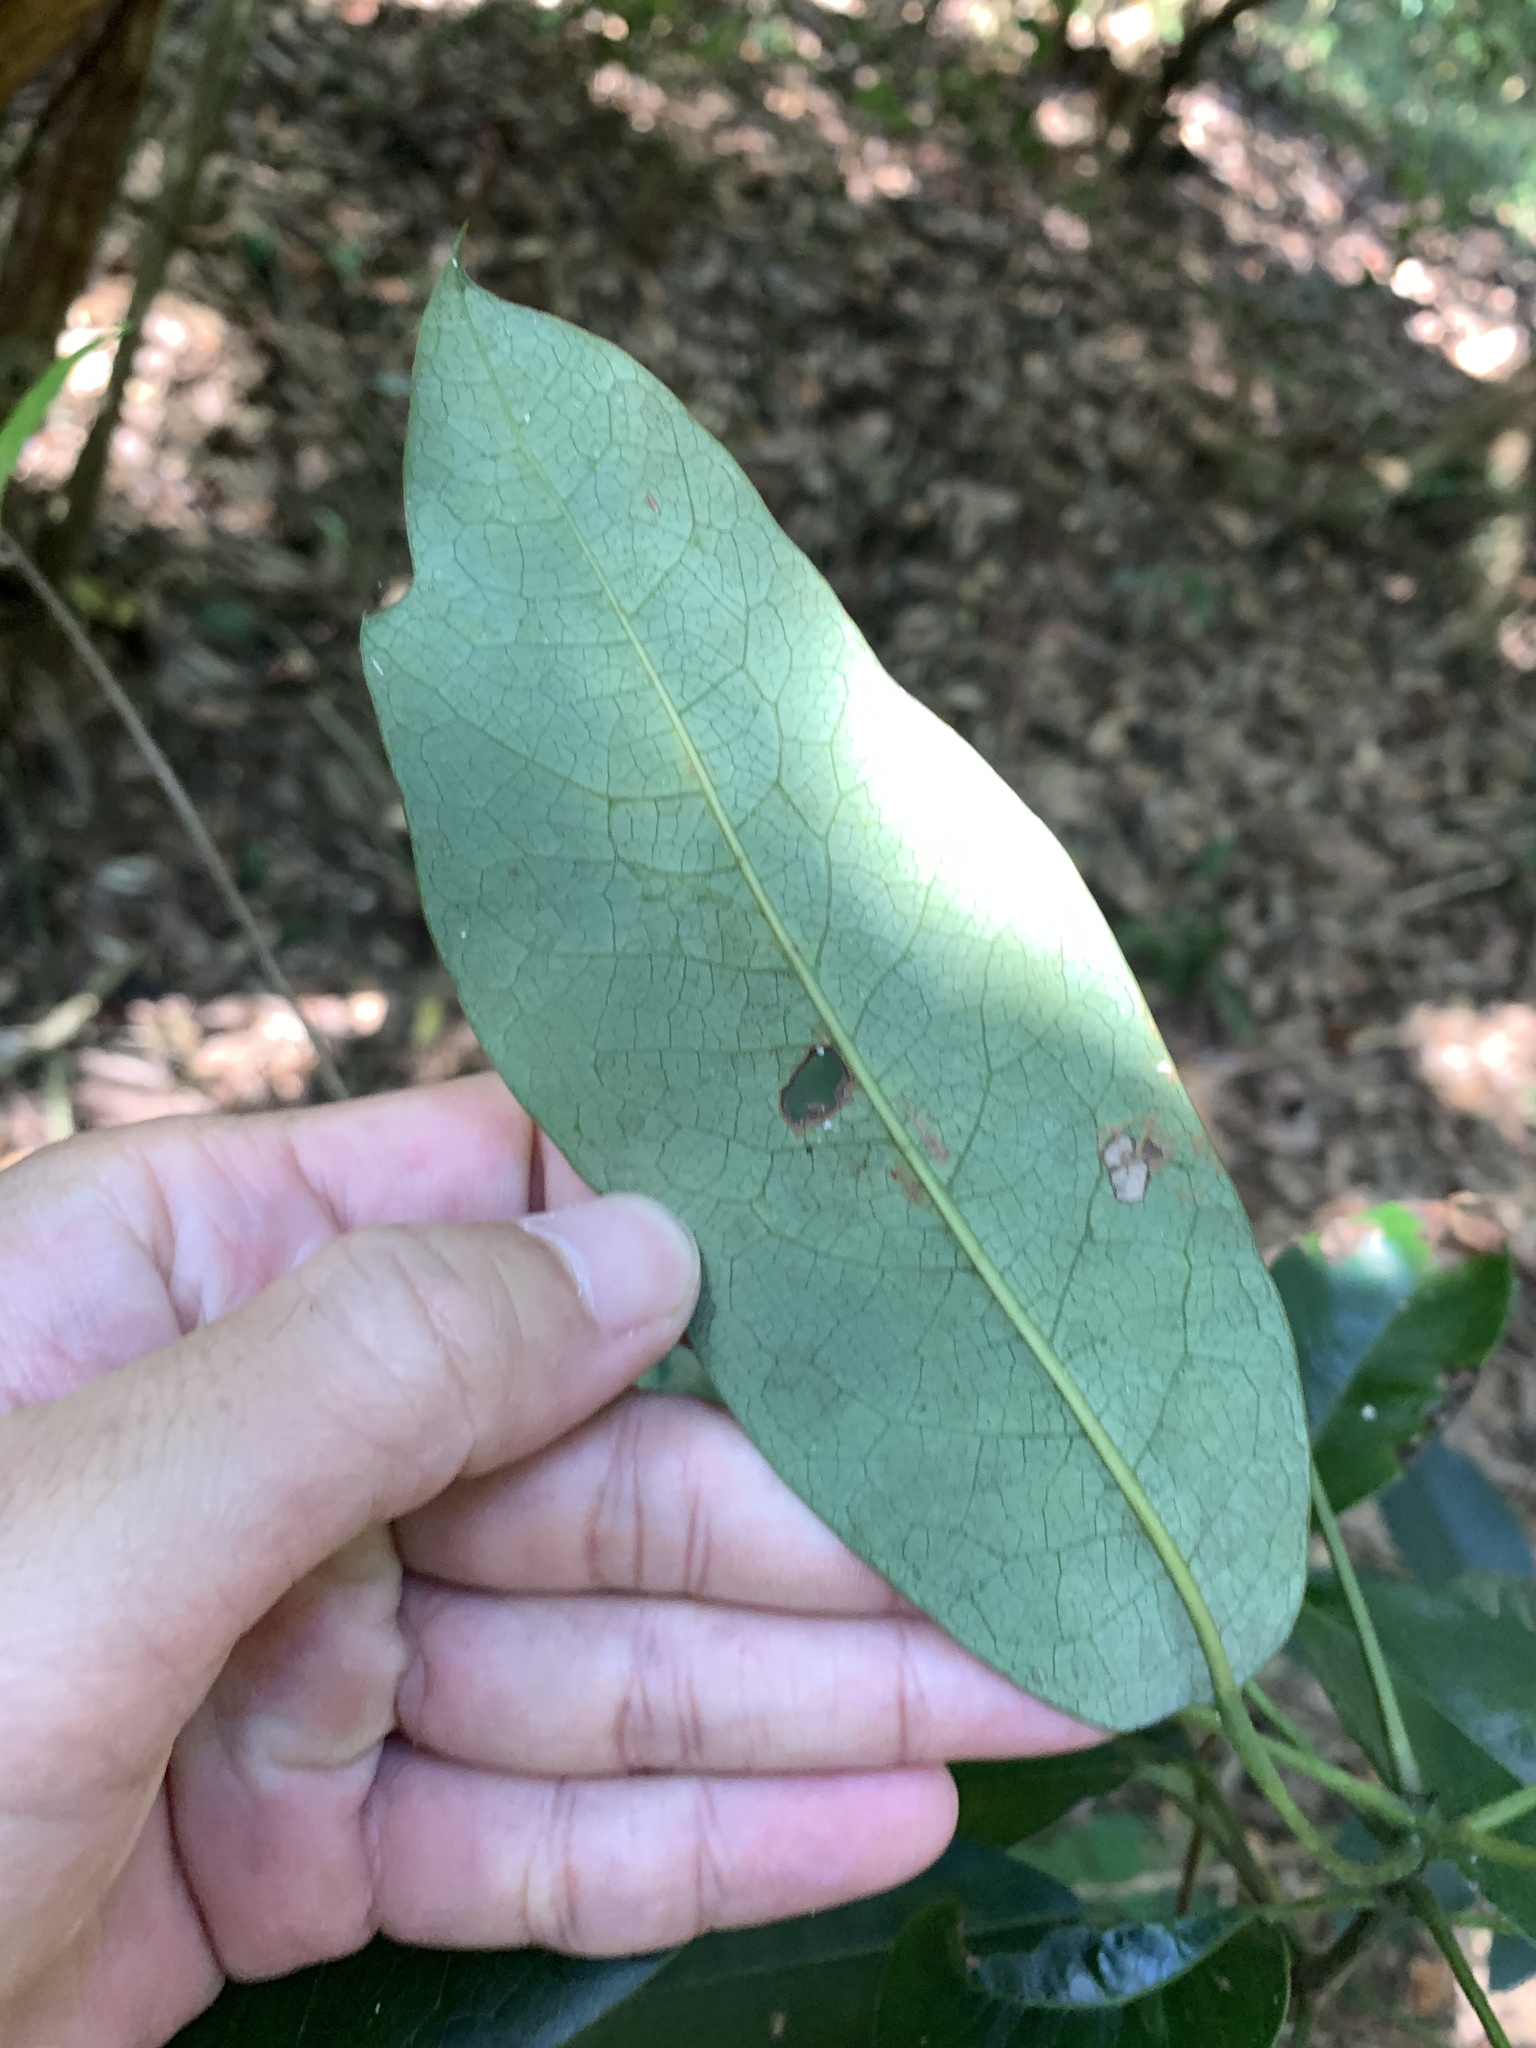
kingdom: Plantae
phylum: Tracheophyta
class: Magnoliopsida
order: Saxifragales
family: Daphniphyllaceae
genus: Daphniphyllum
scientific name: Daphniphyllum pentandrum
